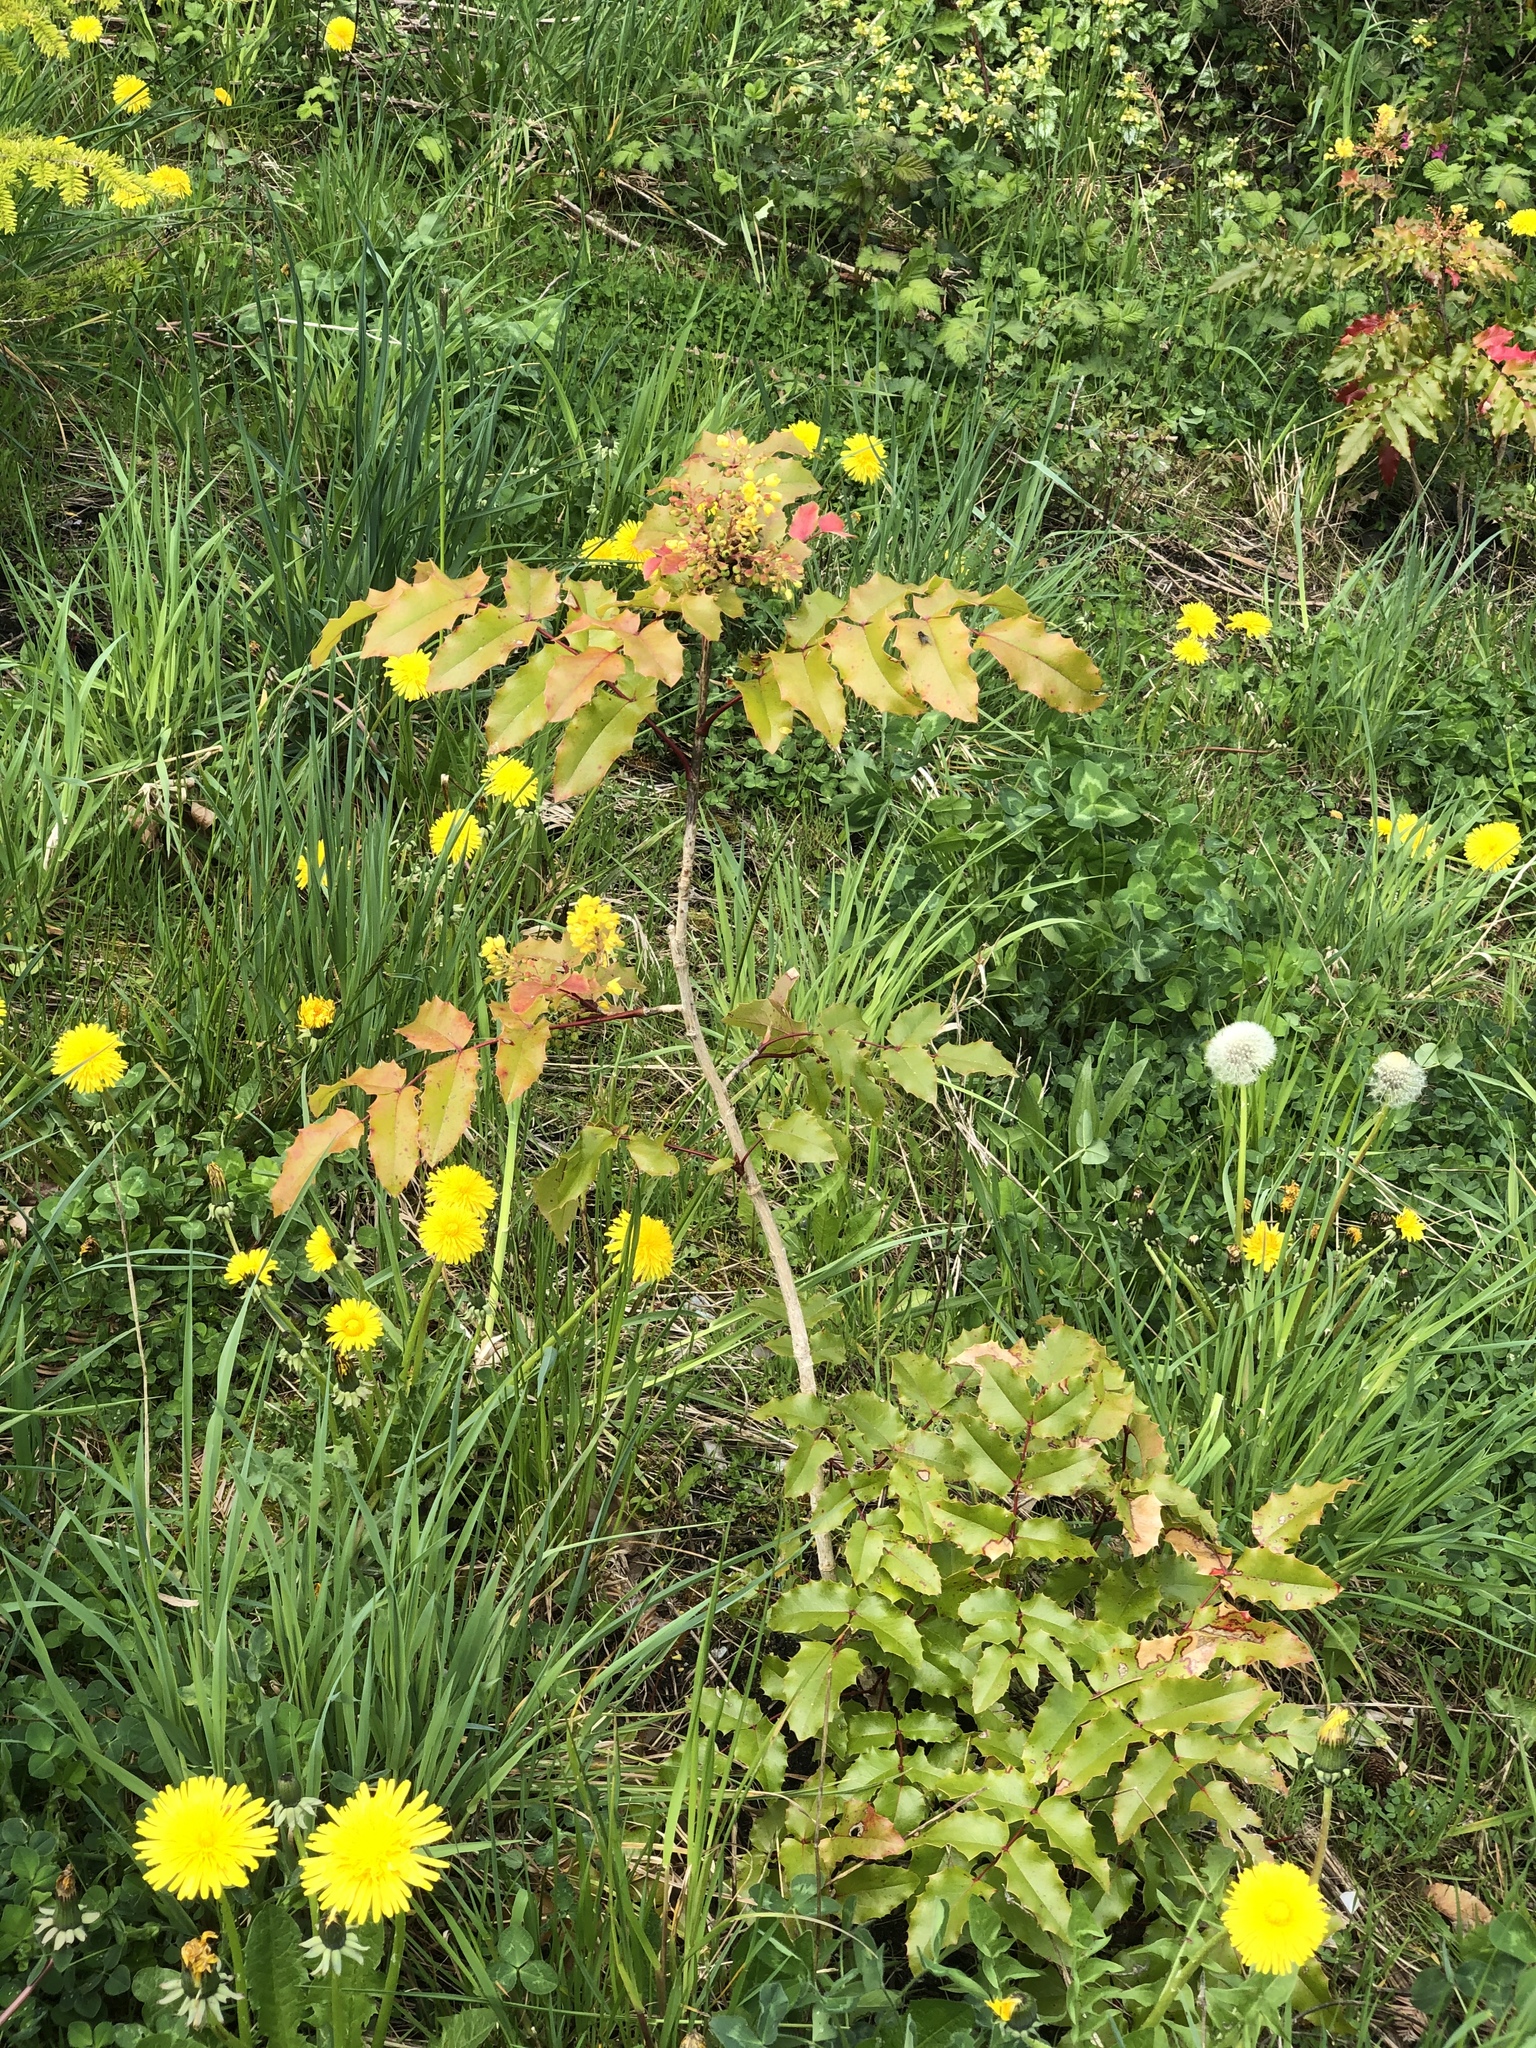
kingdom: Plantae
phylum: Tracheophyta
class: Magnoliopsida
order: Ranunculales
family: Berberidaceae
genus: Mahonia
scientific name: Mahonia aquifolium
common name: Oregon-grape
